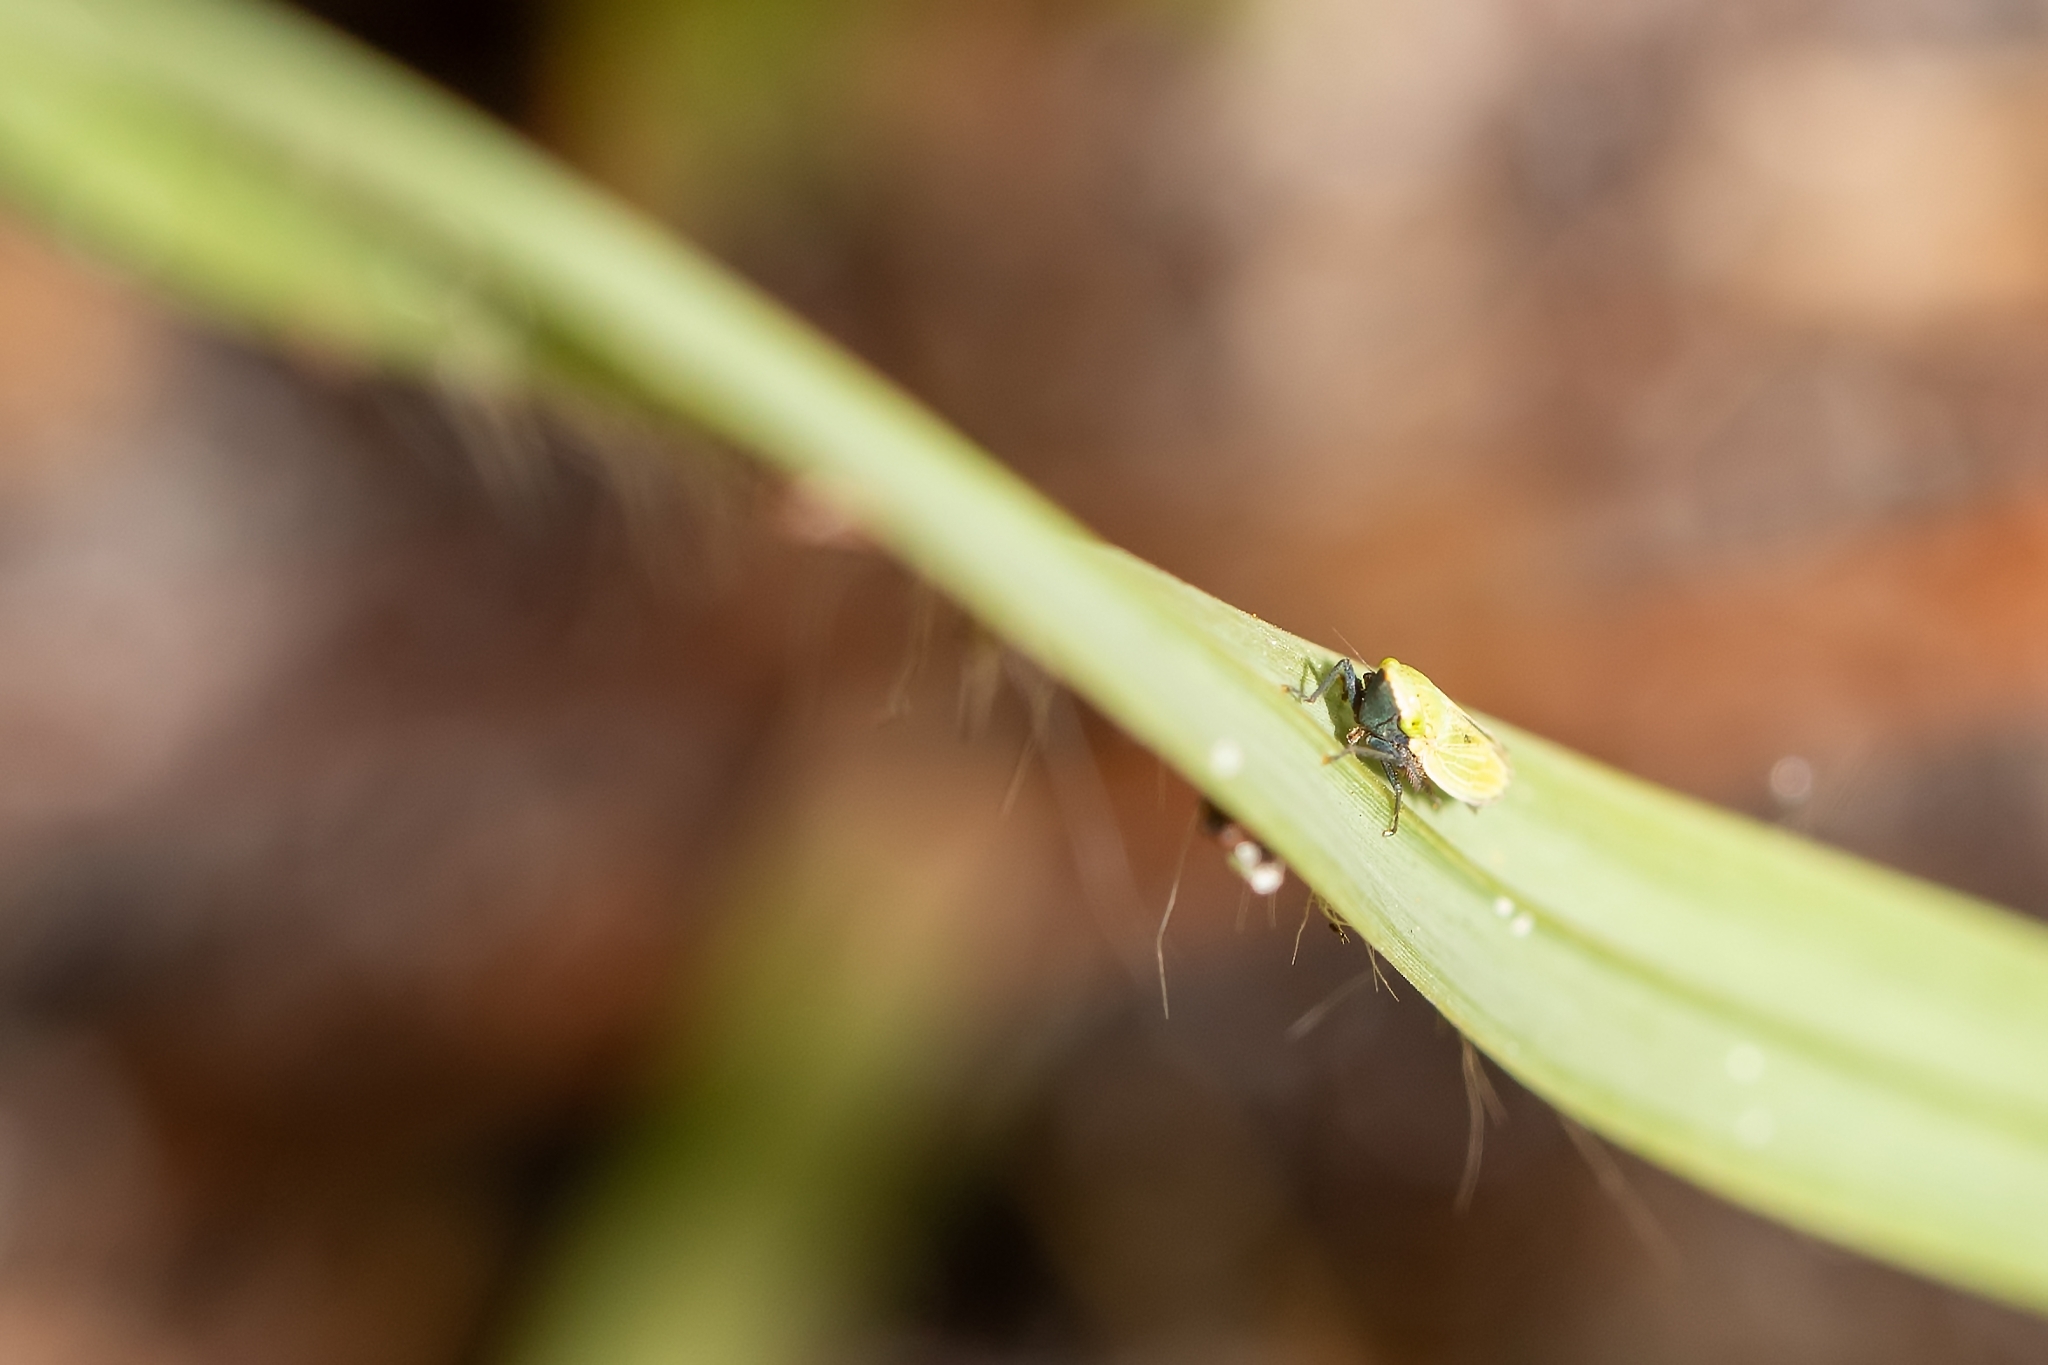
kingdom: Animalia
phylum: Arthropoda
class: Insecta
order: Hemiptera
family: Cicadellidae
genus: Draeculacephala
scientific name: Draeculacephala bradleyi
